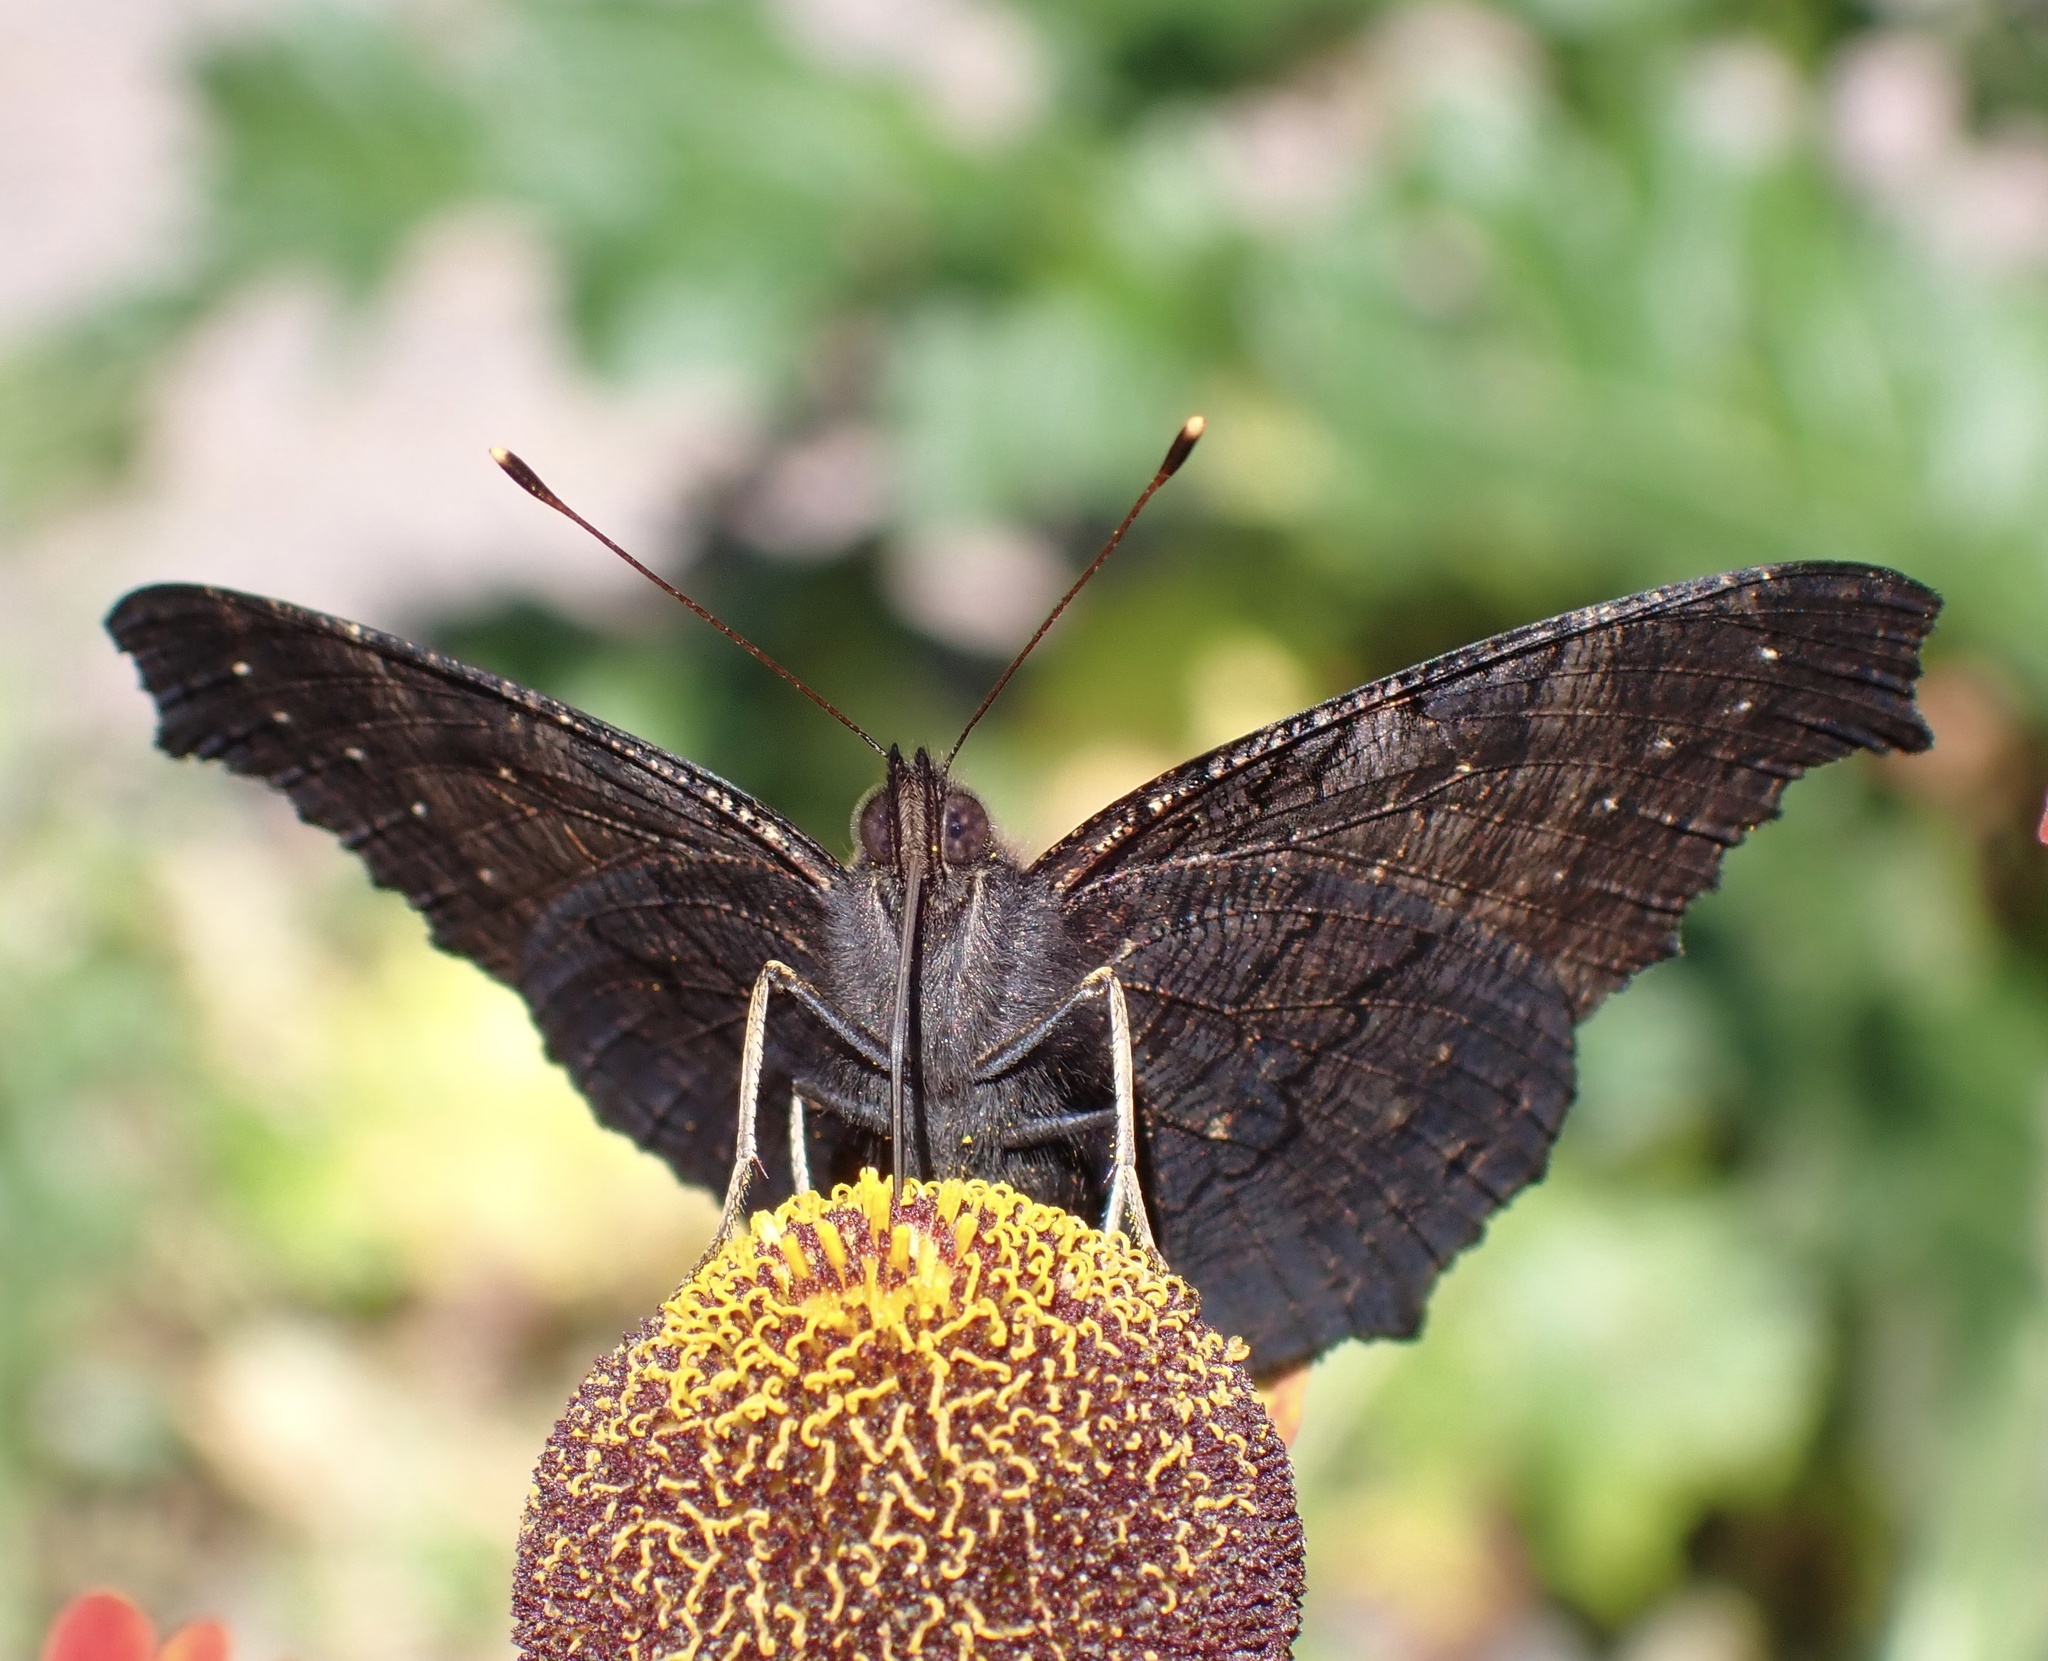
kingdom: Animalia
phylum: Arthropoda
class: Insecta
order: Lepidoptera
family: Nymphalidae
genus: Aglais
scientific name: Aglais io
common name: Peacock
